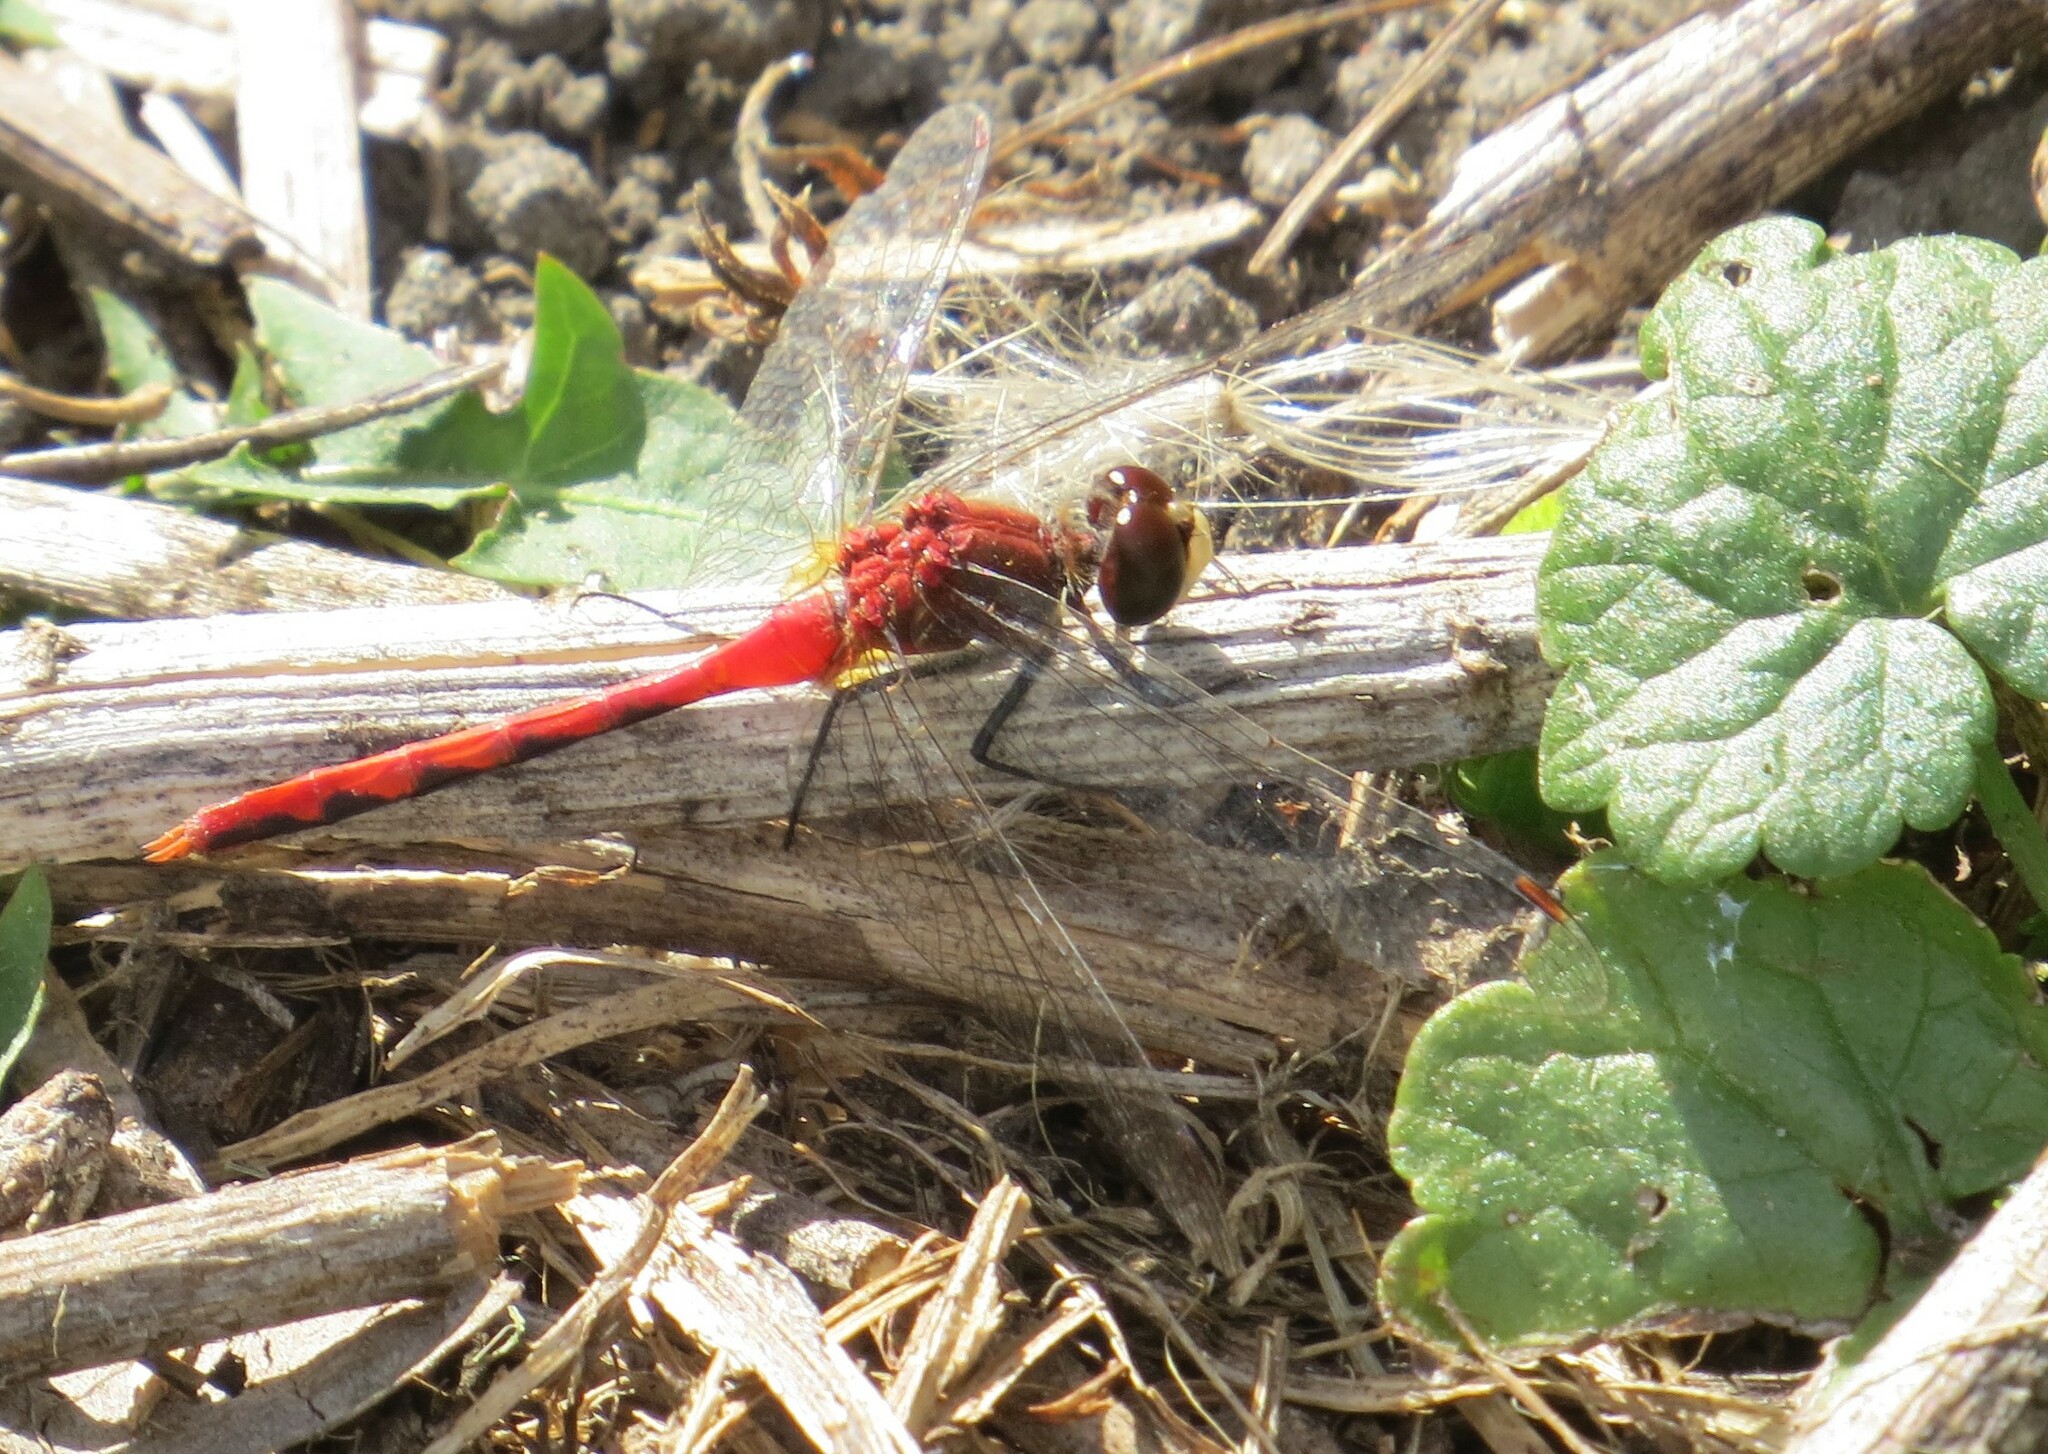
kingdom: Animalia
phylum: Arthropoda
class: Insecta
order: Odonata
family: Libellulidae
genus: Sympetrum
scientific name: Sympetrum obtrusum
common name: White-faced meadowhawk
